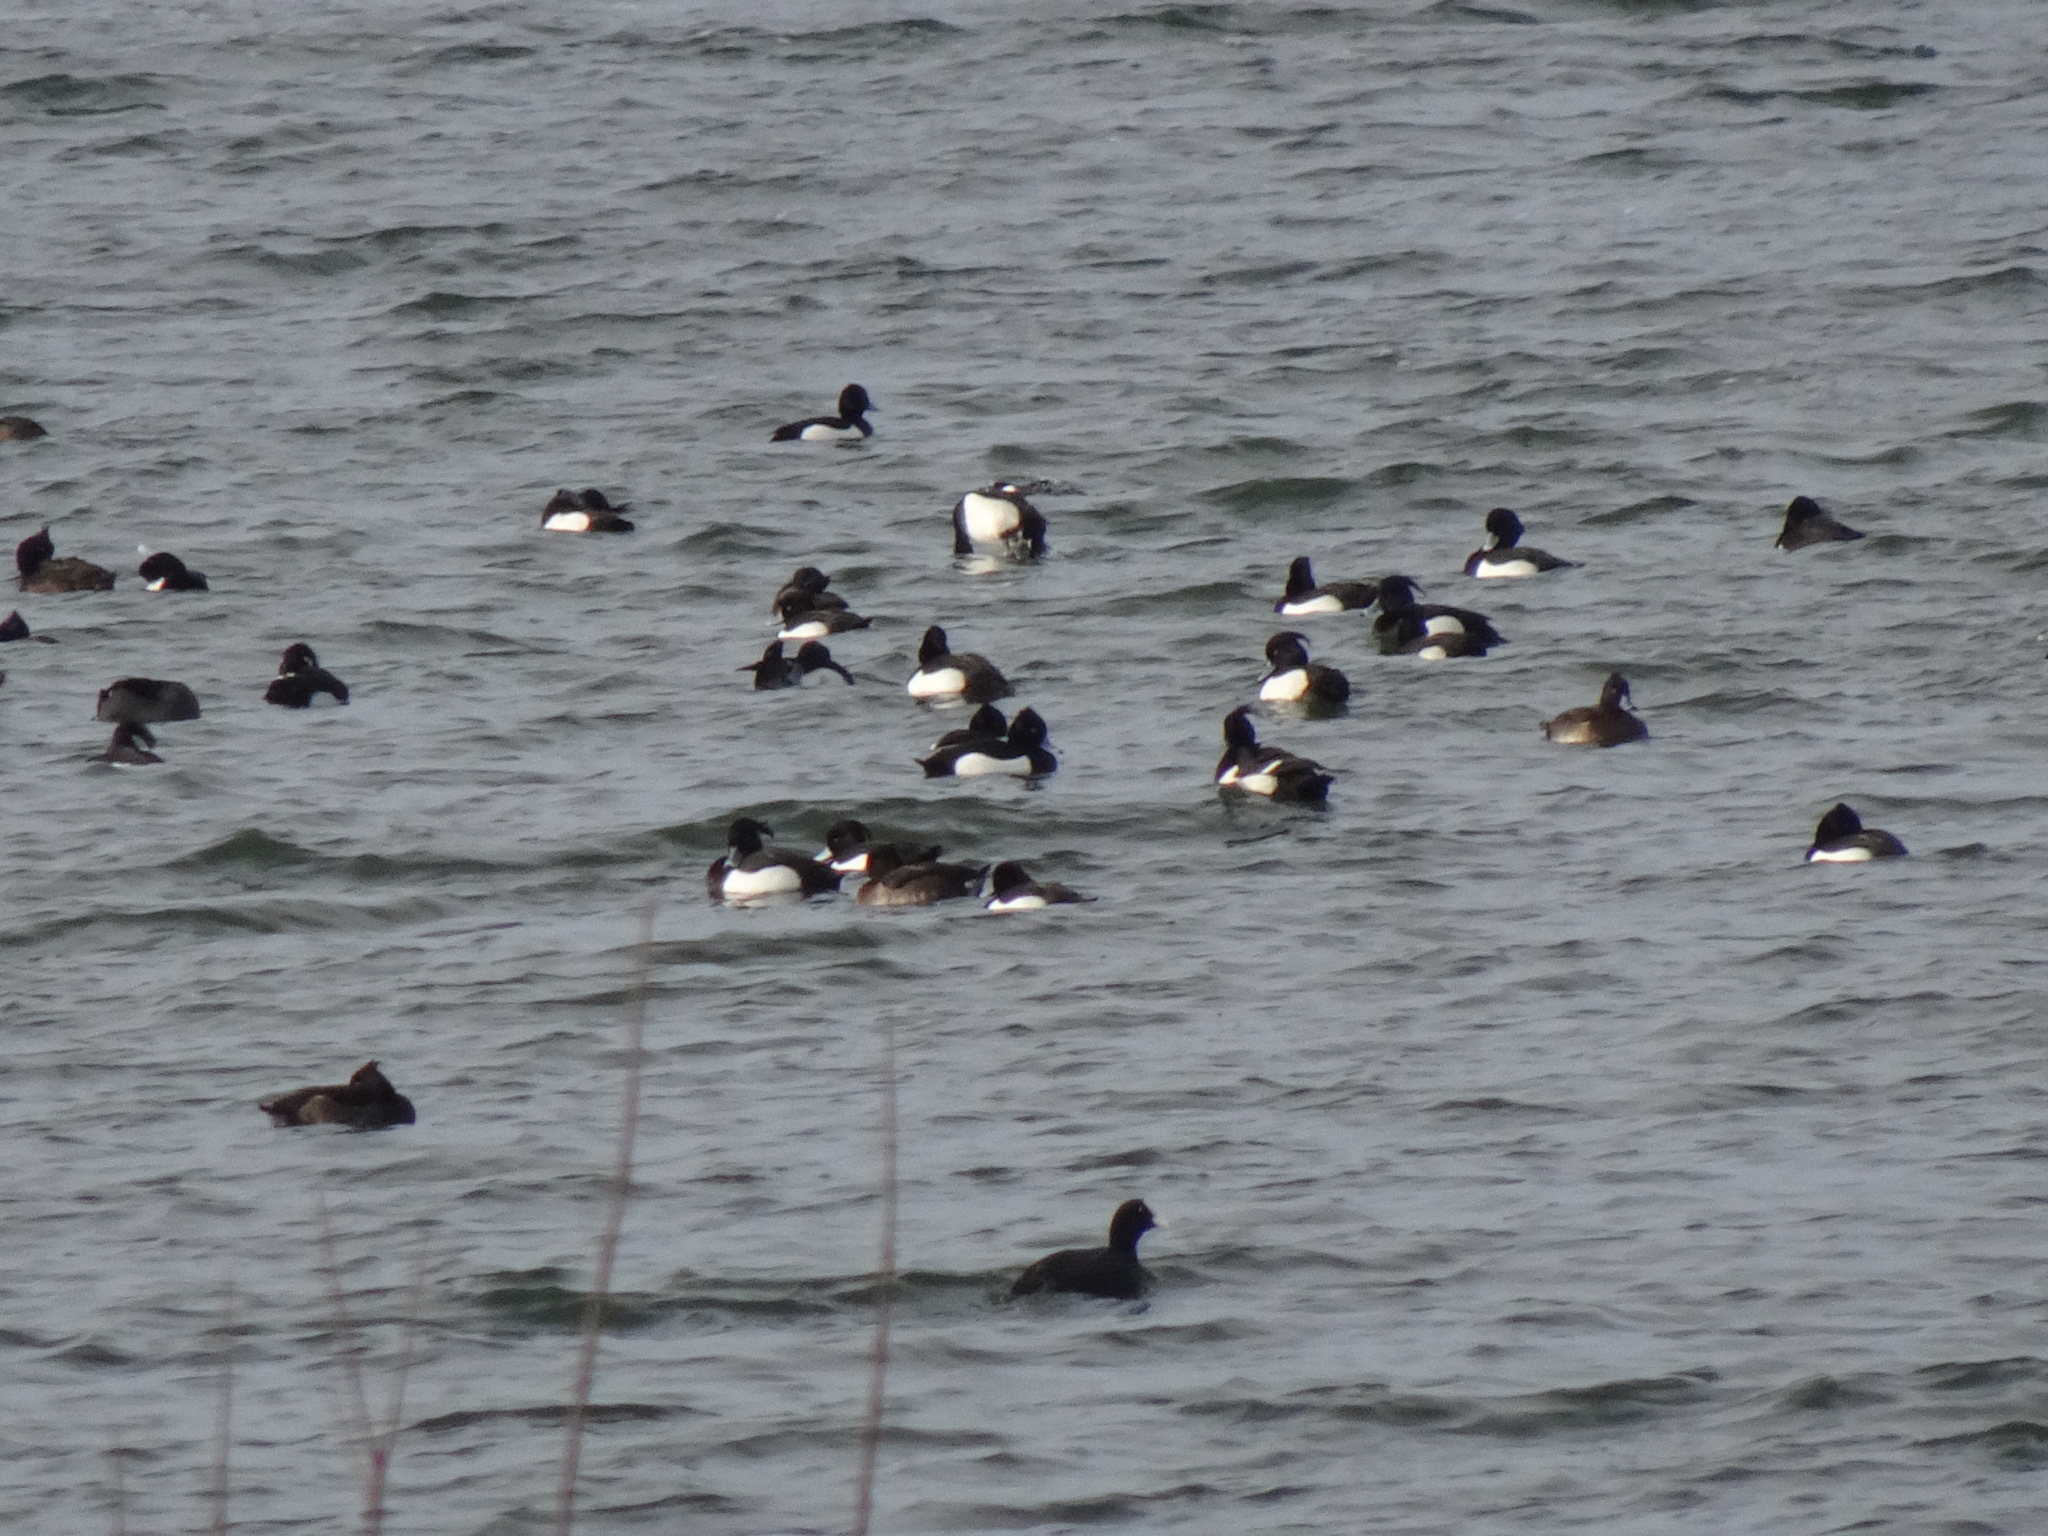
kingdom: Animalia
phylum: Chordata
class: Aves
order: Anseriformes
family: Anatidae
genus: Aythya
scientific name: Aythya fuligula
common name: Tufted duck
